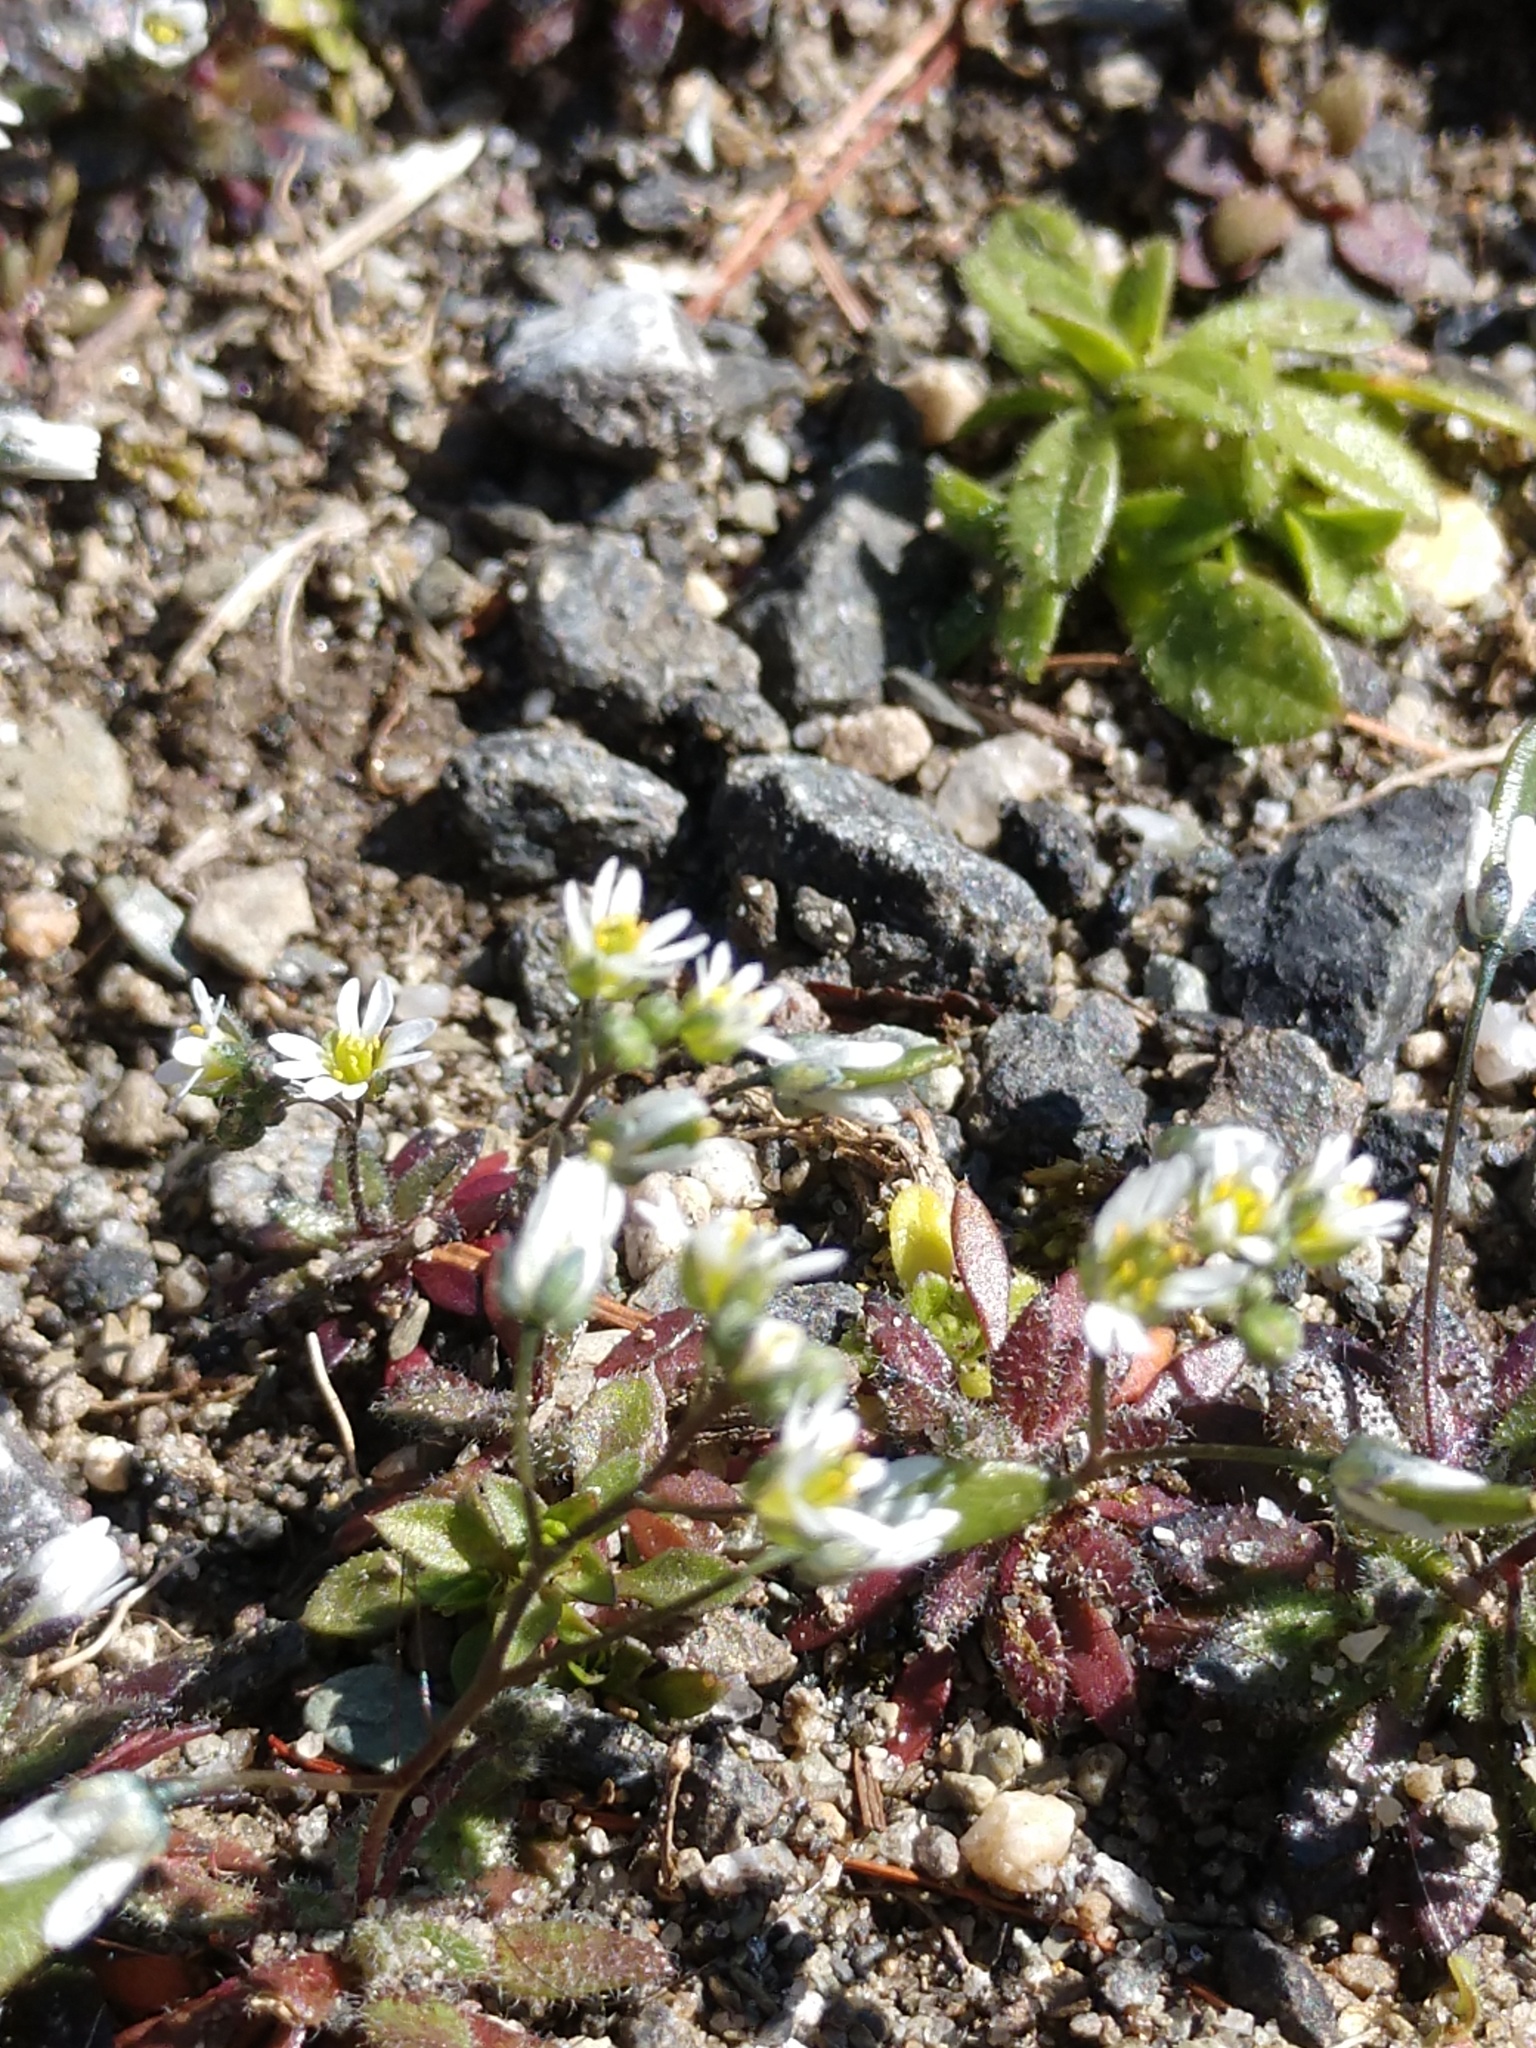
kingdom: Plantae
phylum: Tracheophyta
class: Magnoliopsida
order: Brassicales
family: Brassicaceae
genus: Draba
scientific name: Draba verna
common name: Spring draba
